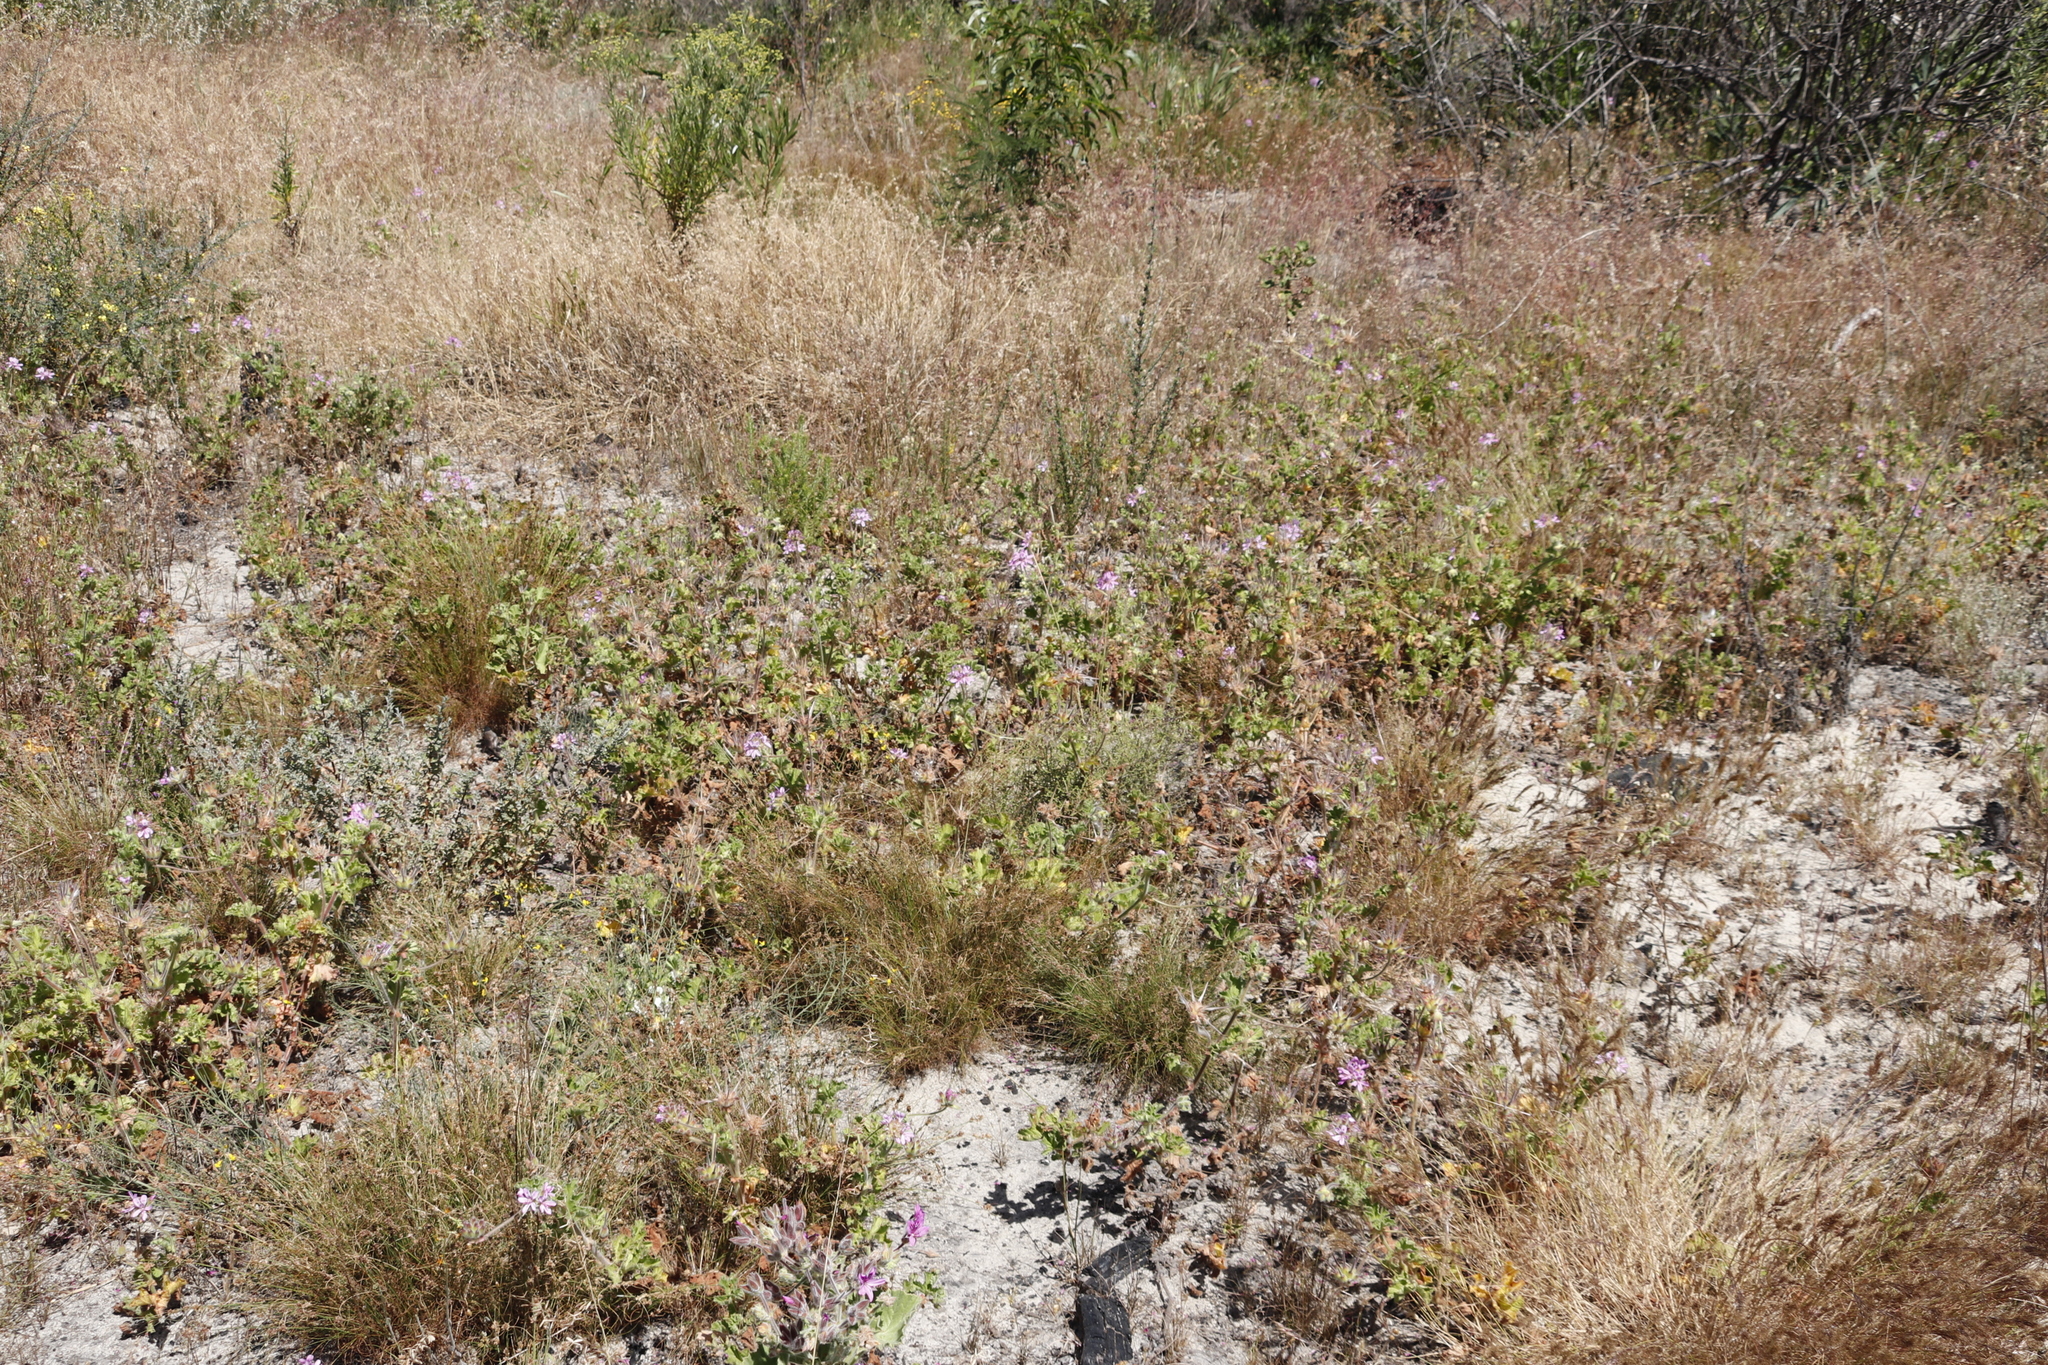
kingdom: Plantae
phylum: Tracheophyta
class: Magnoliopsida
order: Geraniales
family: Geraniaceae
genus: Pelargonium
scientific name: Pelargonium capitatum
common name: Rose scented geranium
